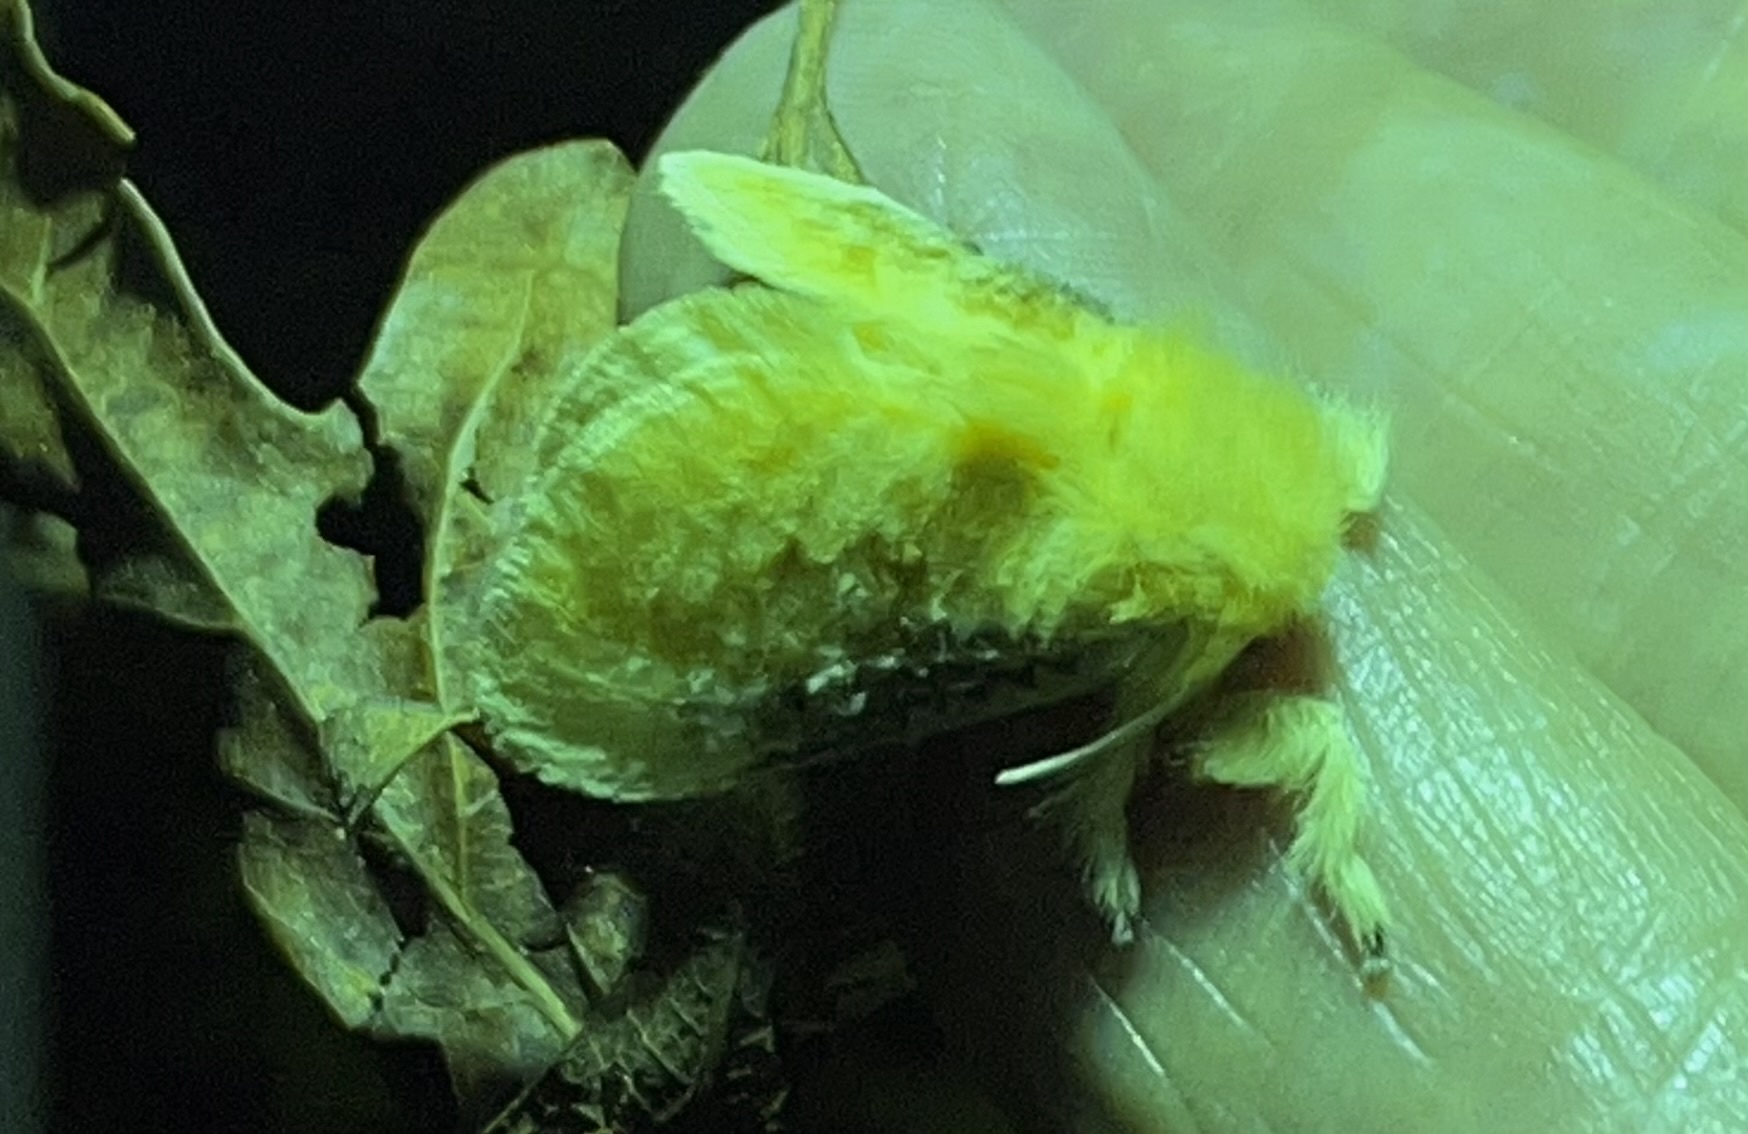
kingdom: Animalia
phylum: Arthropoda
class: Insecta
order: Lepidoptera
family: Megalopygidae
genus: Megalopyge
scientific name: Megalopyge crispata
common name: Black-waved flannel moth
